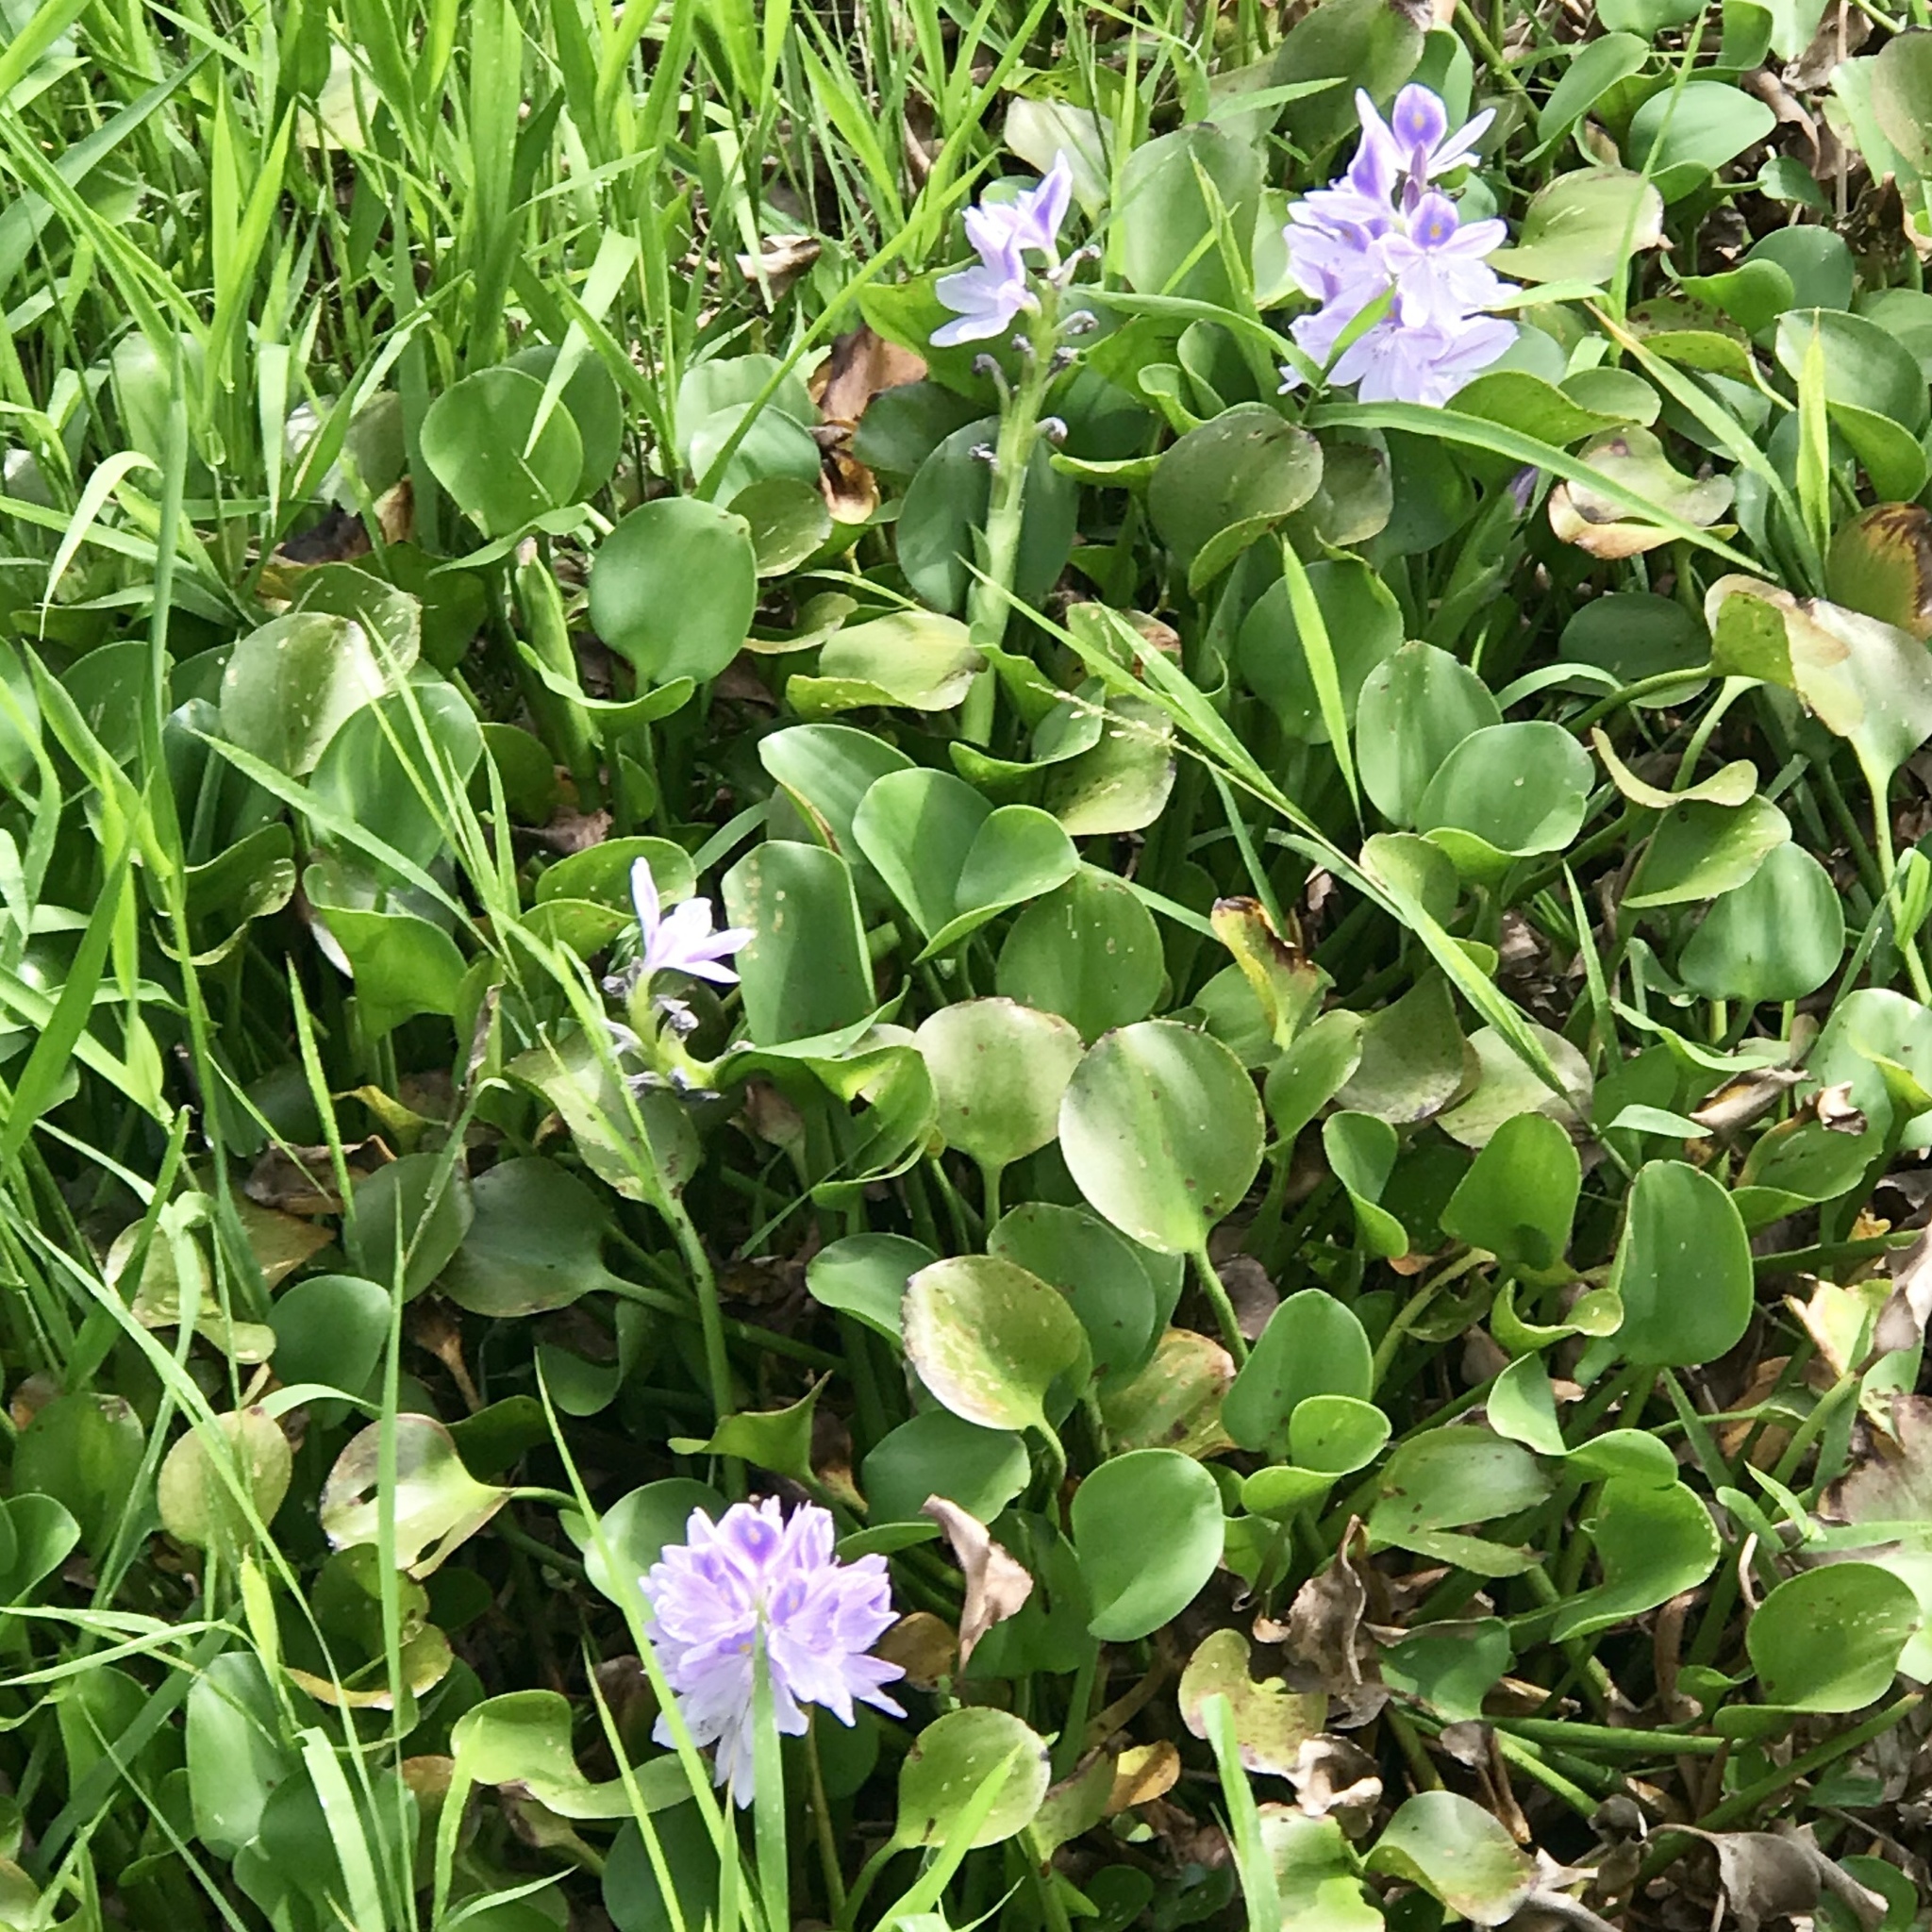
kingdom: Plantae
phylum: Tracheophyta
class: Liliopsida
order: Commelinales
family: Pontederiaceae
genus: Pontederia
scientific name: Pontederia crassipes
